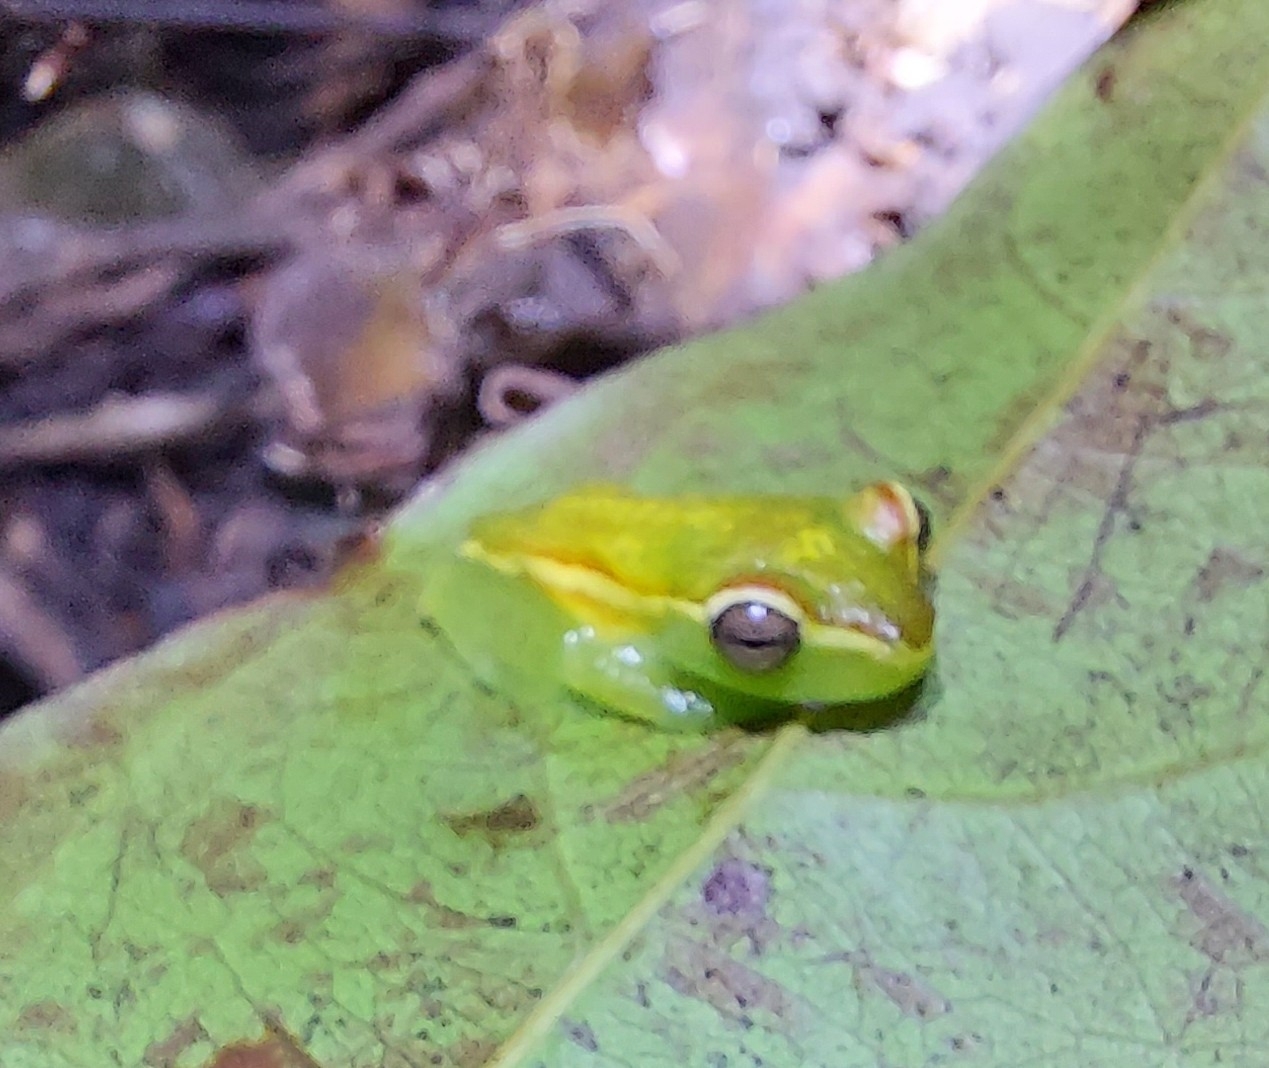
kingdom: Animalia
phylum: Chordata
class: Amphibia
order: Anura
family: Hylidae
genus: Boana
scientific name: Boana rufitela
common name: Canal zone treefrog
